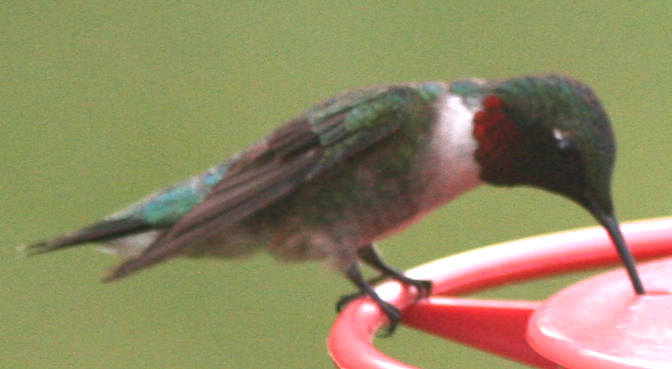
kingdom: Animalia
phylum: Chordata
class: Aves
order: Apodiformes
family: Trochilidae
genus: Archilochus
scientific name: Archilochus colubris
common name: Ruby-throated hummingbird
